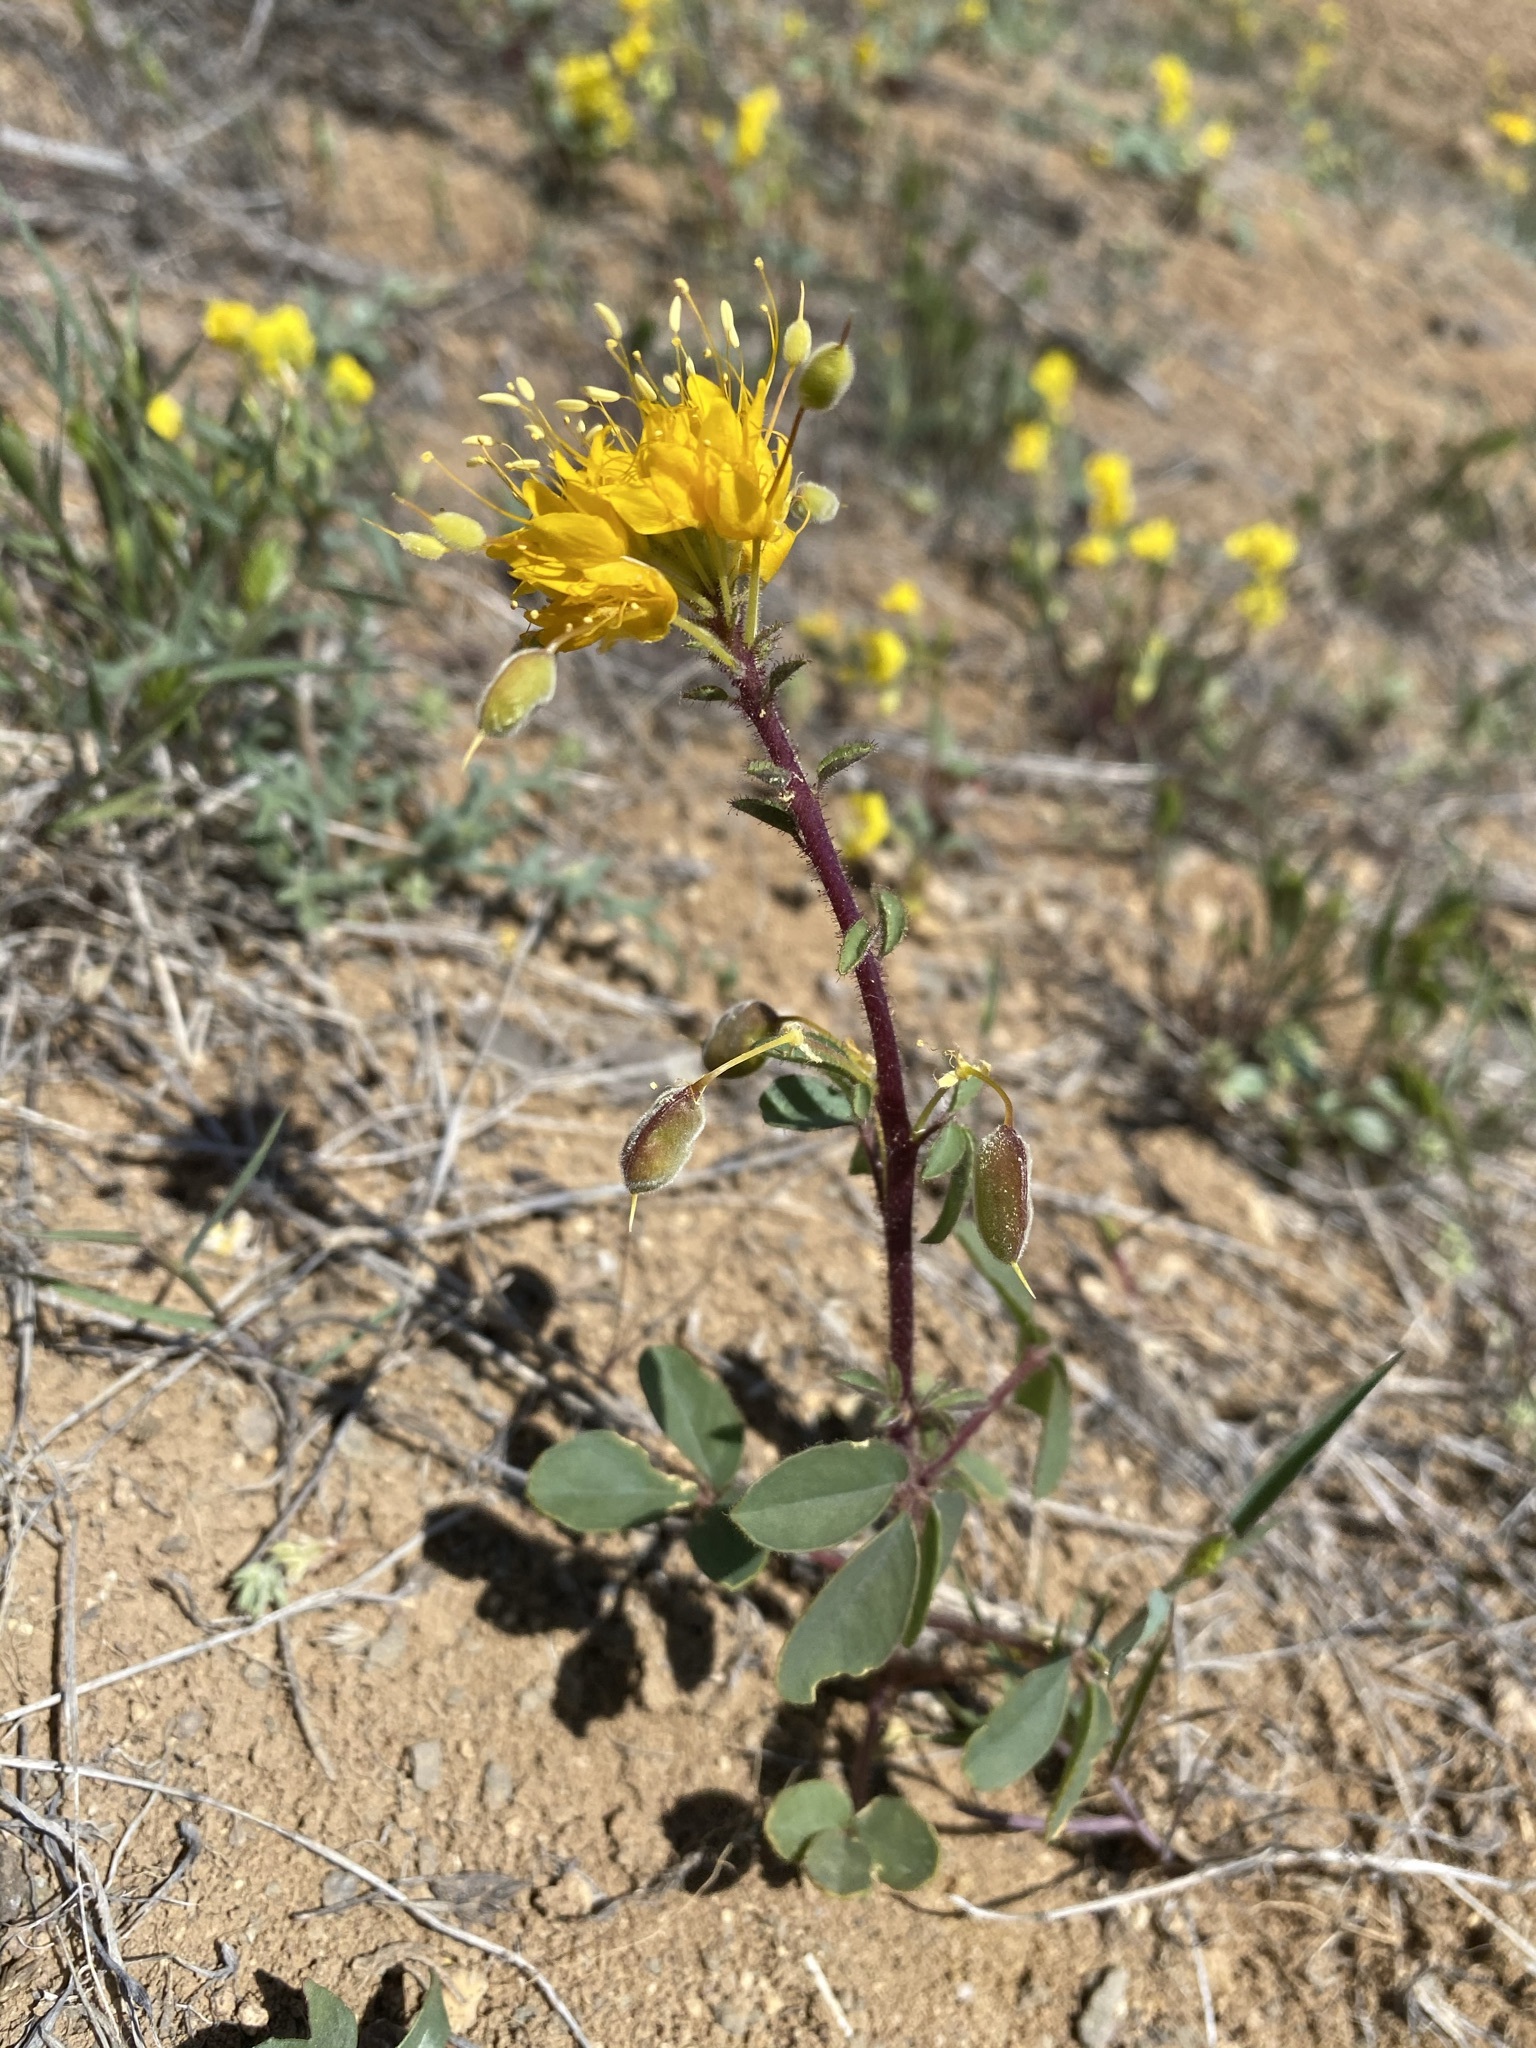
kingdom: Plantae
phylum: Tracheophyta
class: Magnoliopsida
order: Brassicales
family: Cleomaceae
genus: Cleomella
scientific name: Cleomella platycarpa
